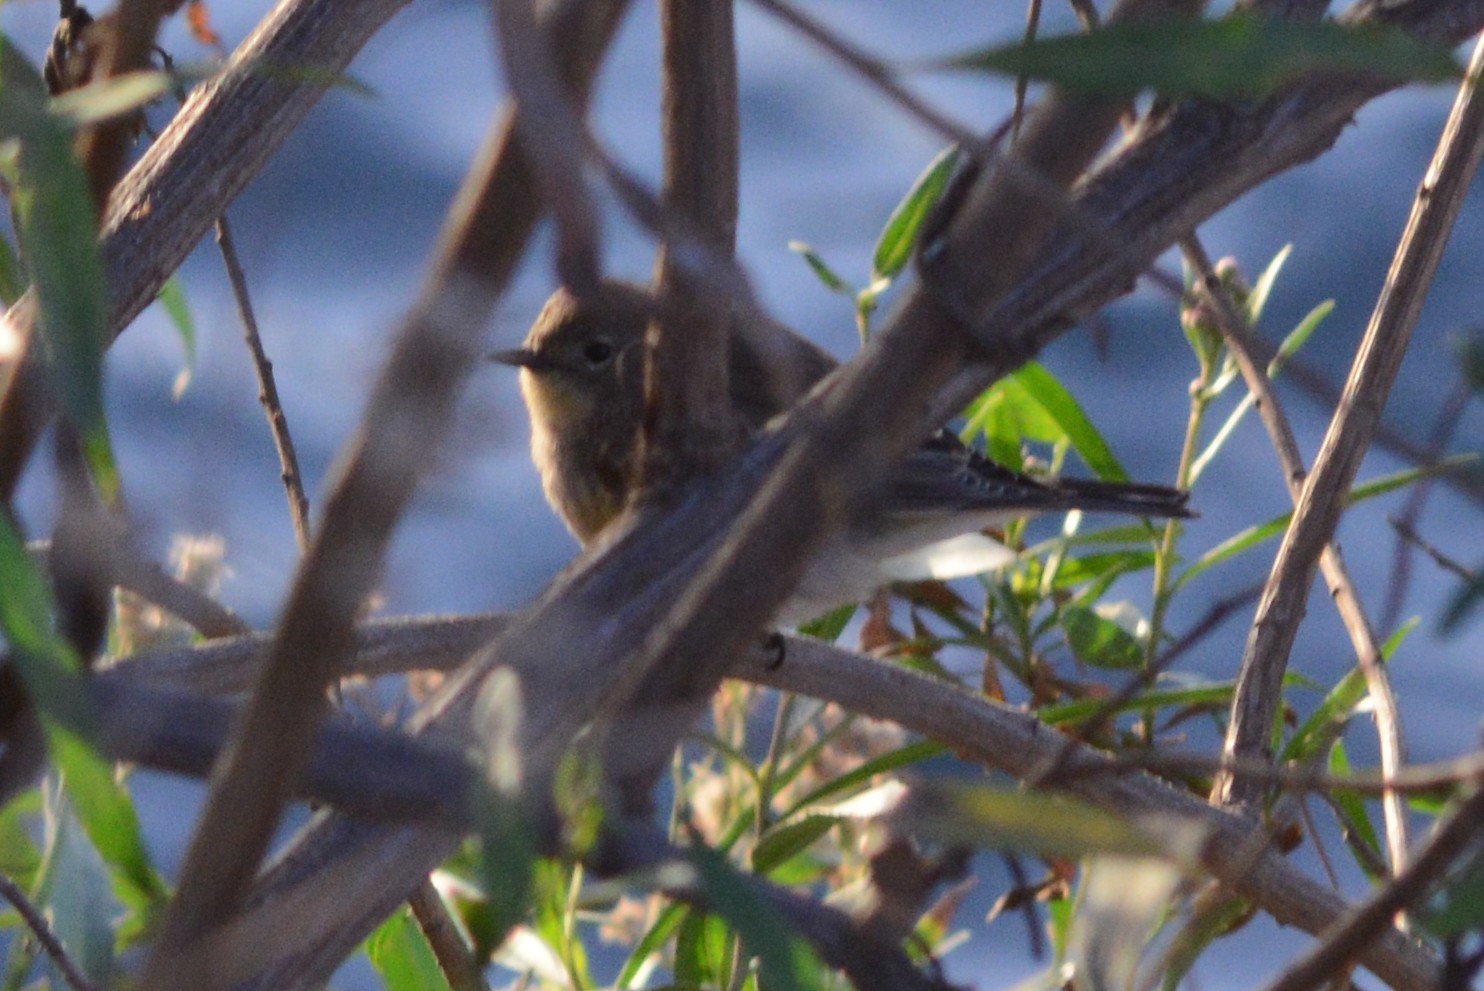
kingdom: Animalia
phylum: Chordata
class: Aves
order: Passeriformes
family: Parulidae
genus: Setophaga
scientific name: Setophaga auduboni
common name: Audubon's warbler
